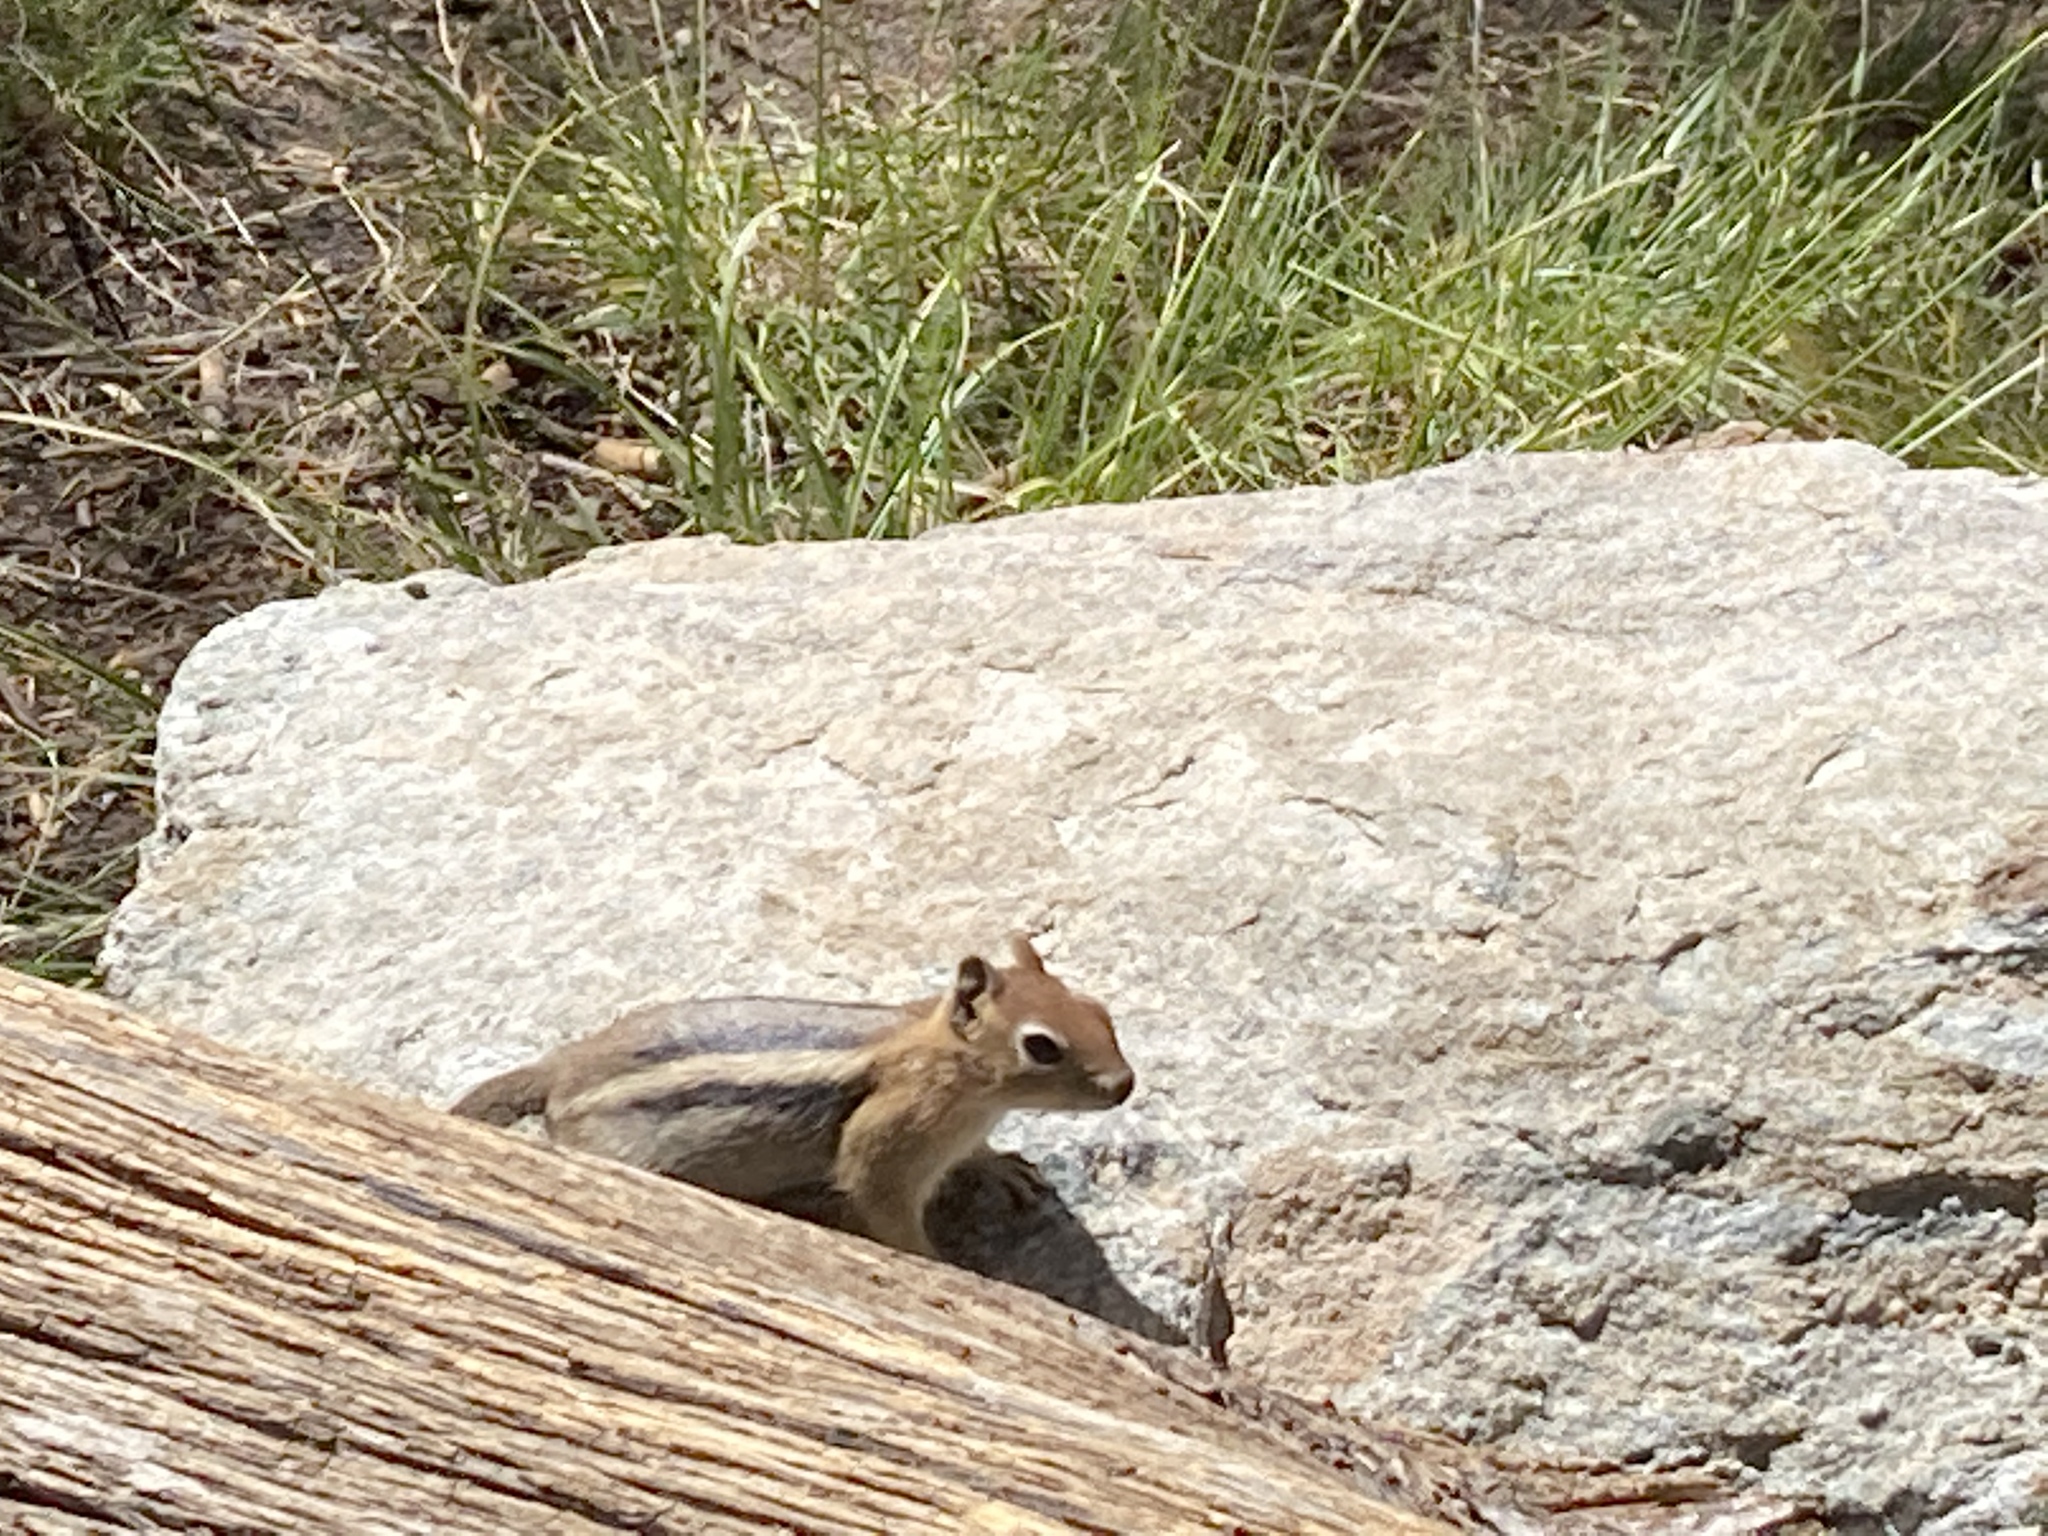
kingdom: Animalia
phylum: Chordata
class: Mammalia
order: Rodentia
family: Sciuridae
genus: Callospermophilus
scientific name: Callospermophilus lateralis
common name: Golden-mantled ground squirrel
